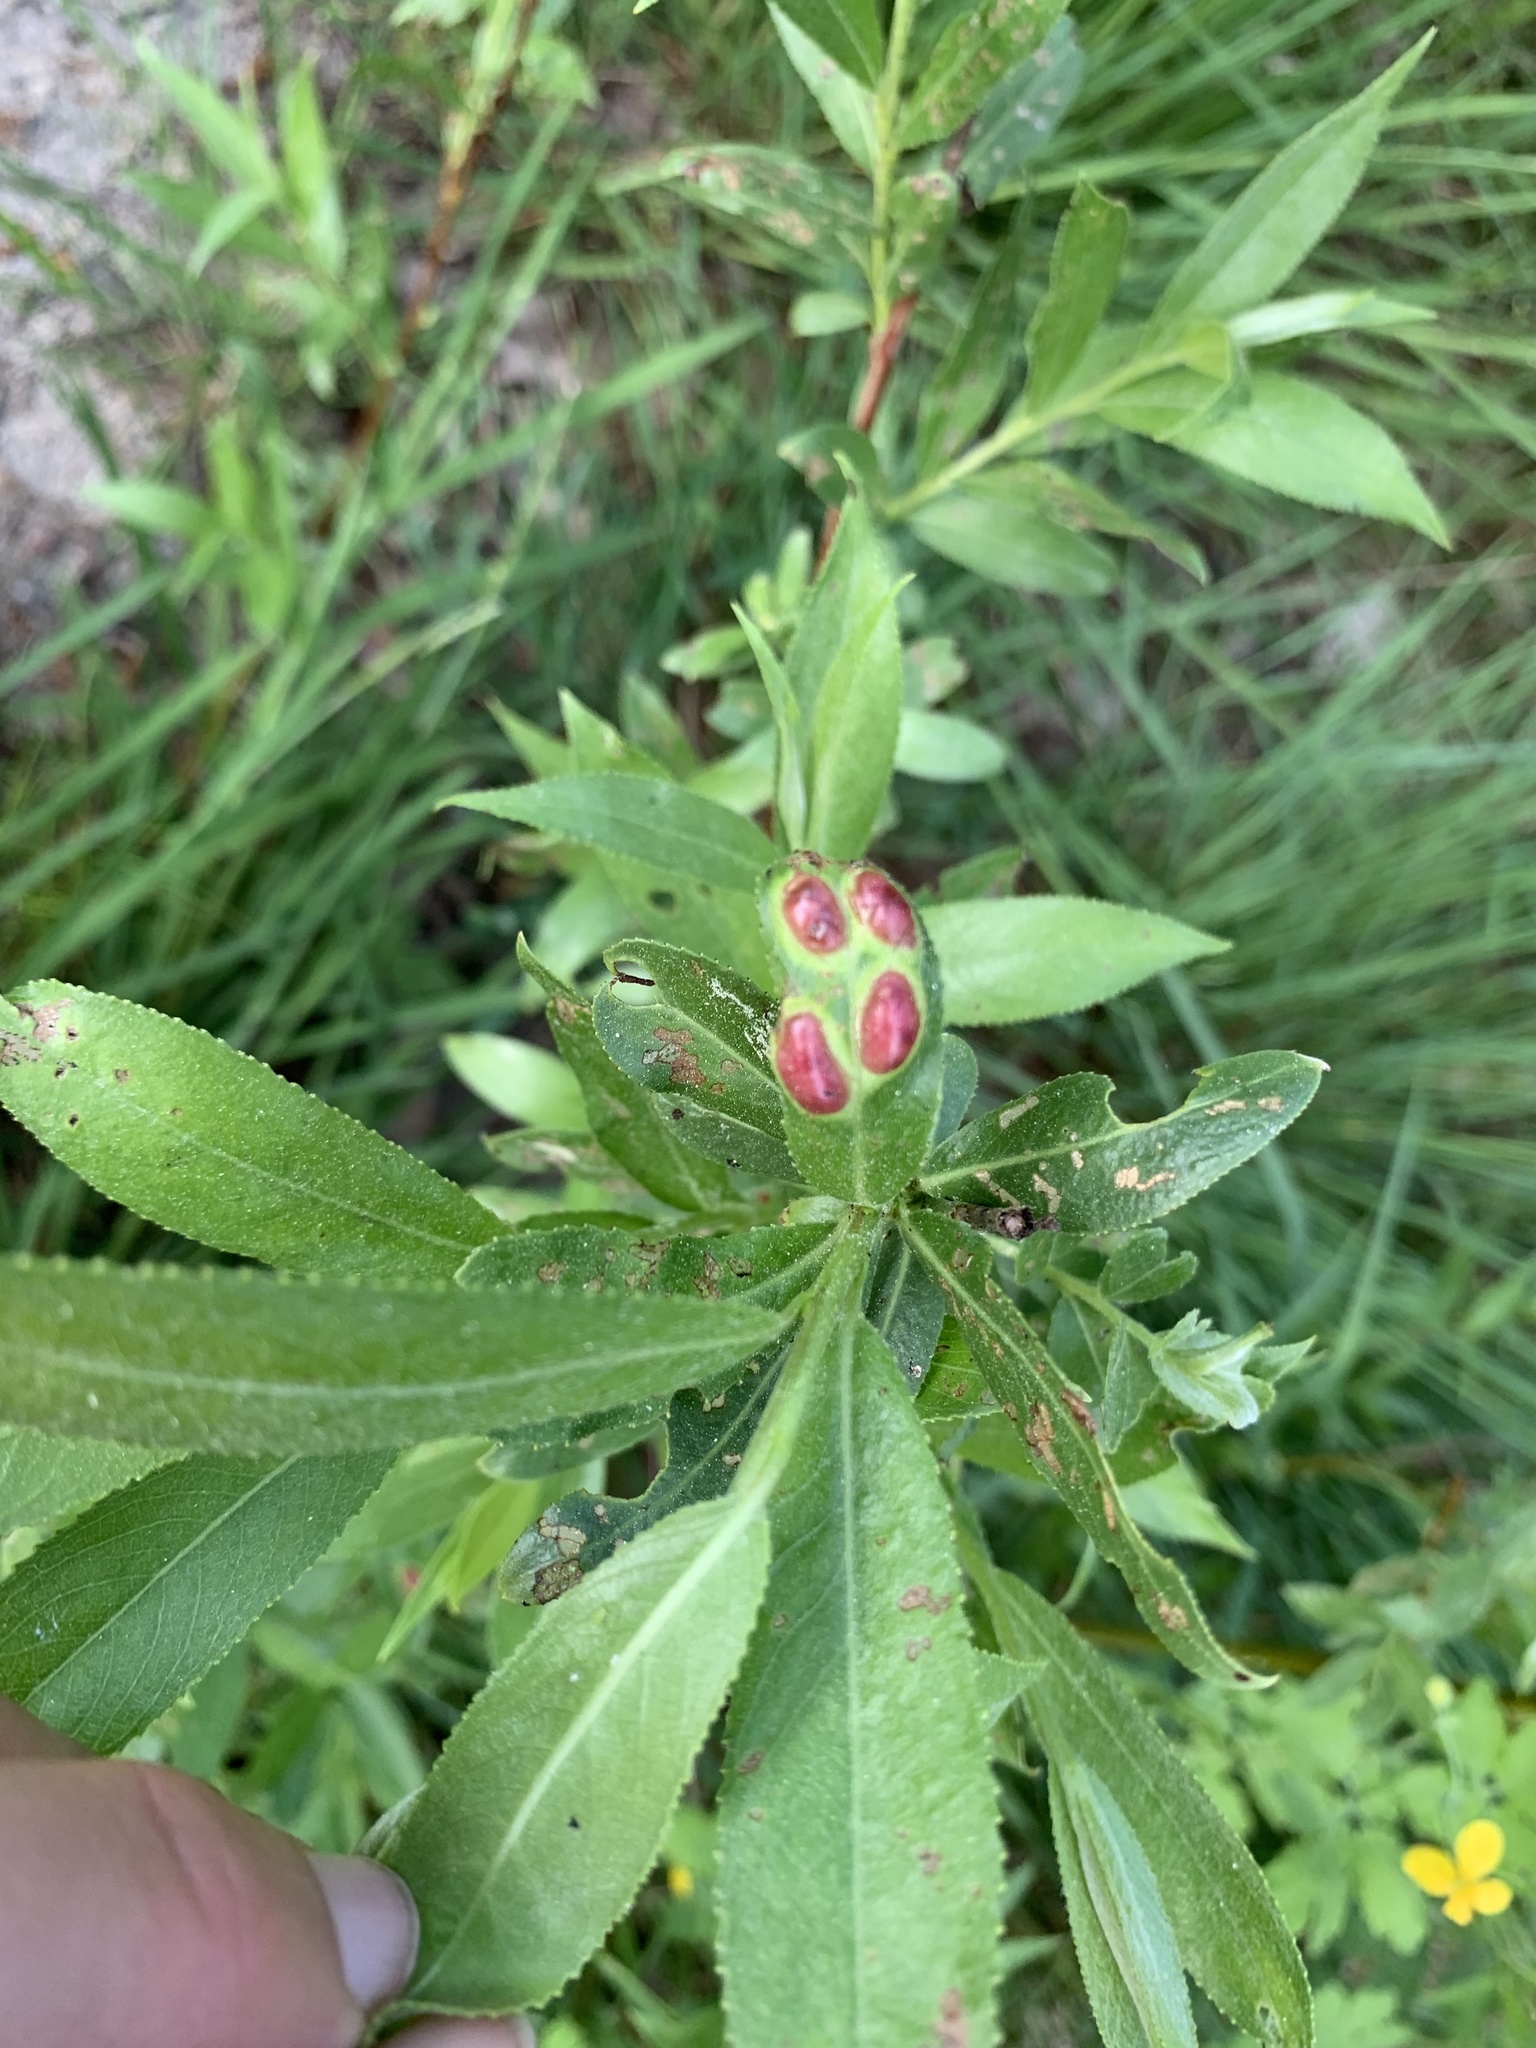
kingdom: Animalia
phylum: Arthropoda
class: Insecta
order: Hymenoptera
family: Tenthredinidae
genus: Pontania
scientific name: Pontania proxima
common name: Common sawfly
